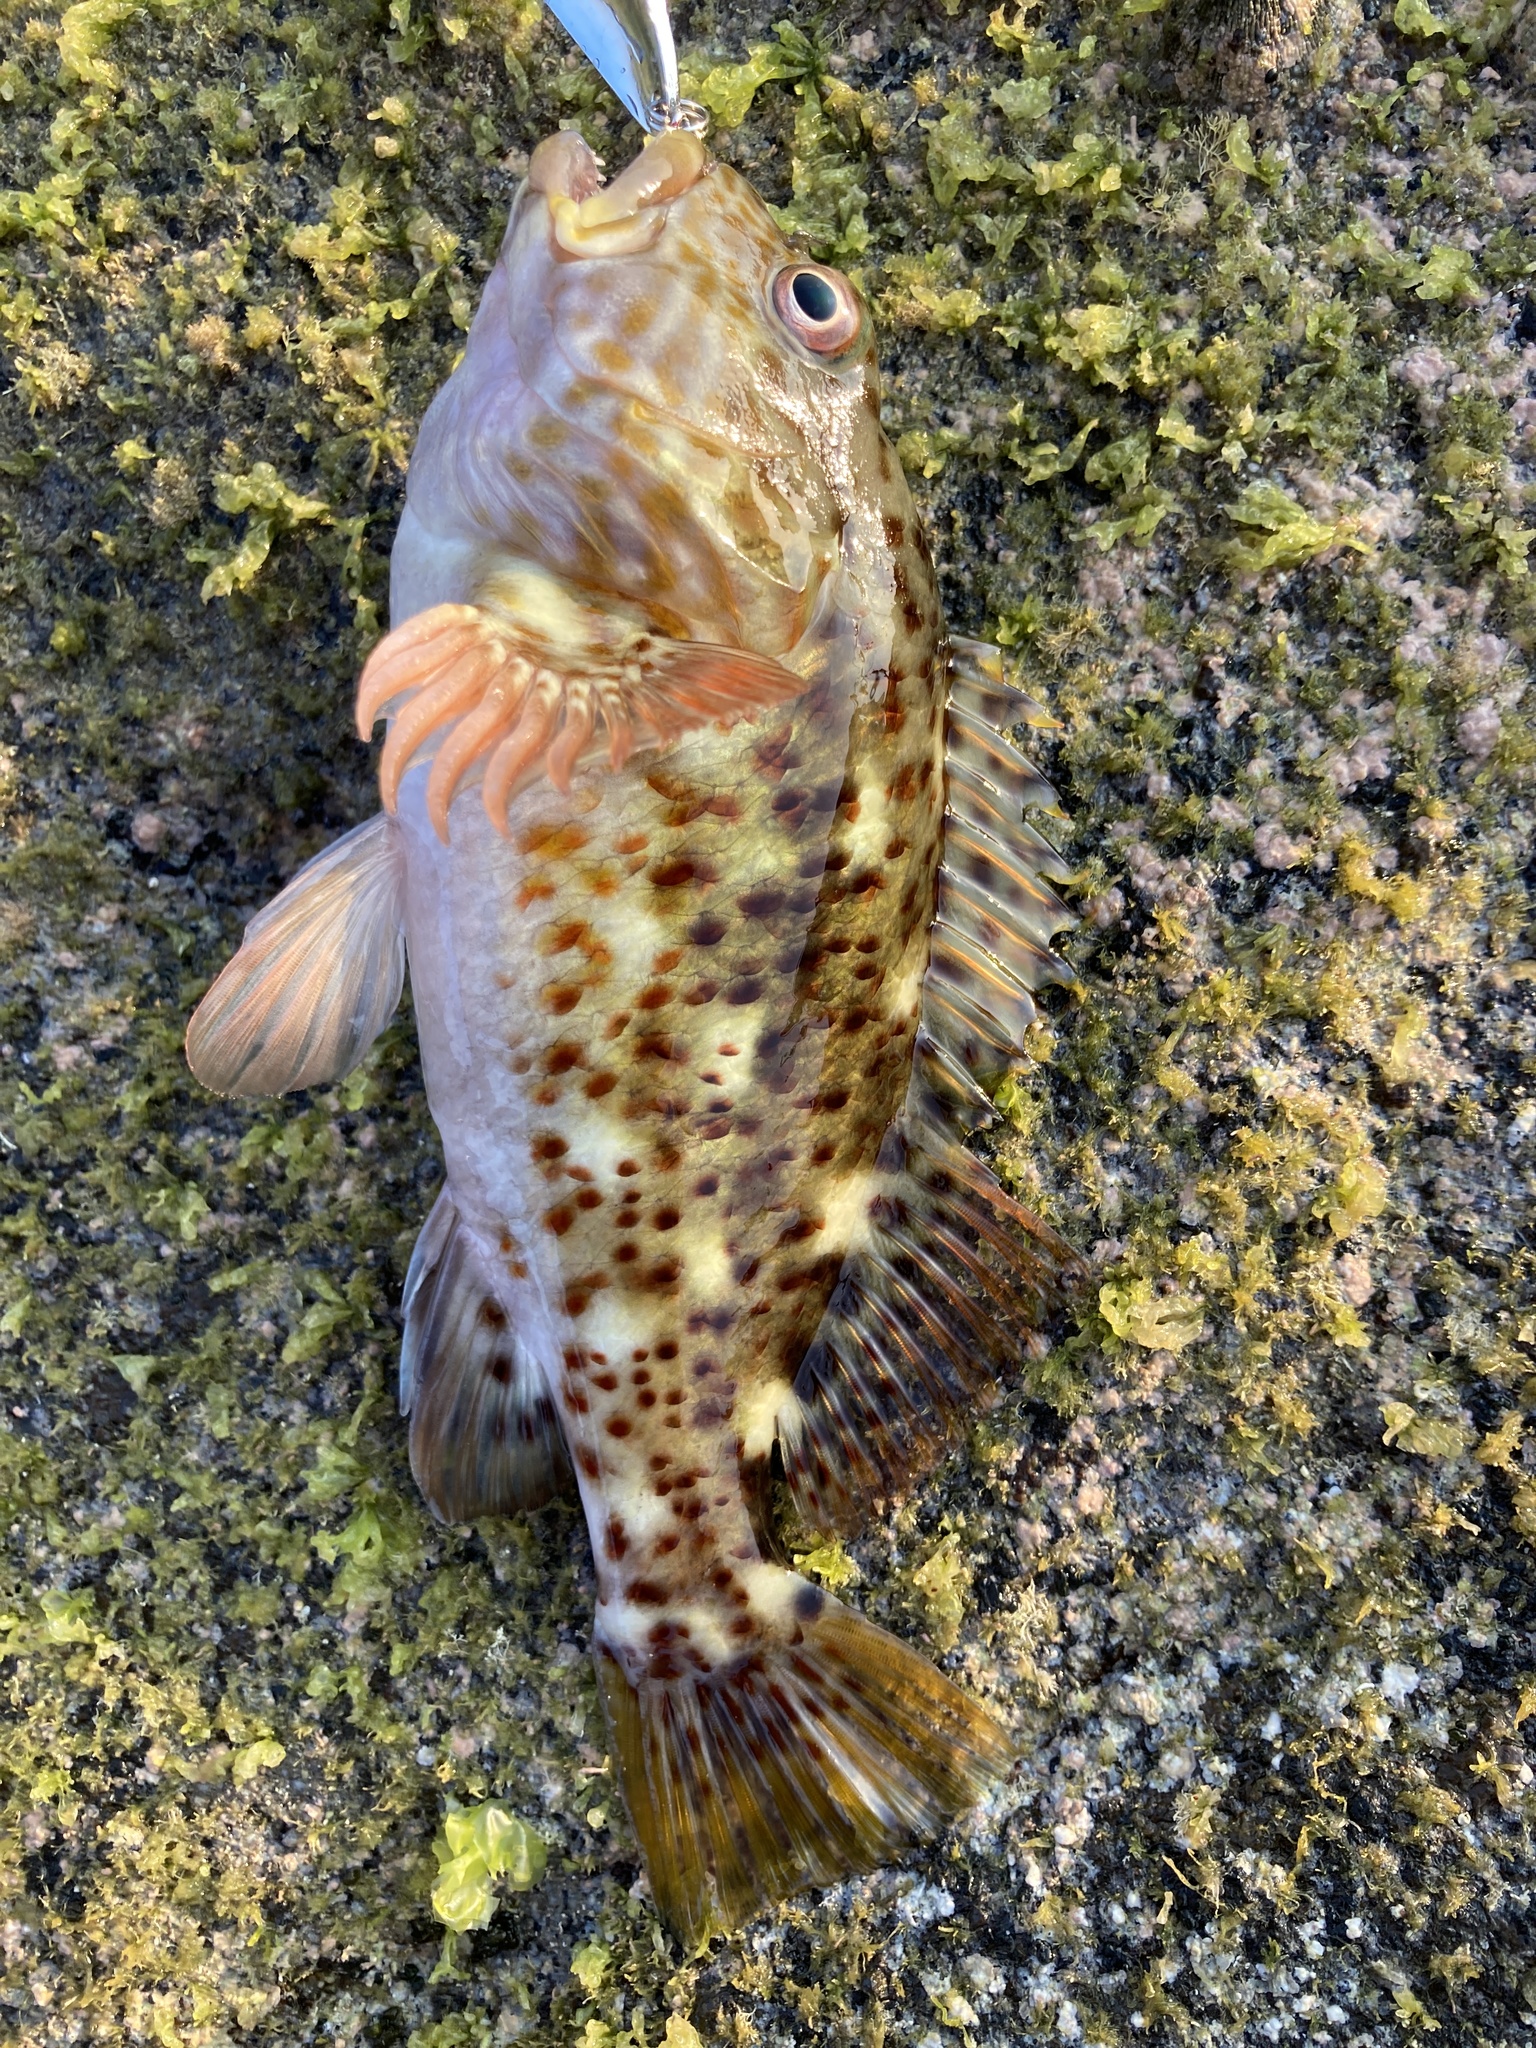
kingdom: Animalia
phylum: Chordata
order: Perciformes
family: Cirrhitidae
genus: Cirrhitus
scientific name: Cirrhitus pinnulatus
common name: Stocky hawkfish
